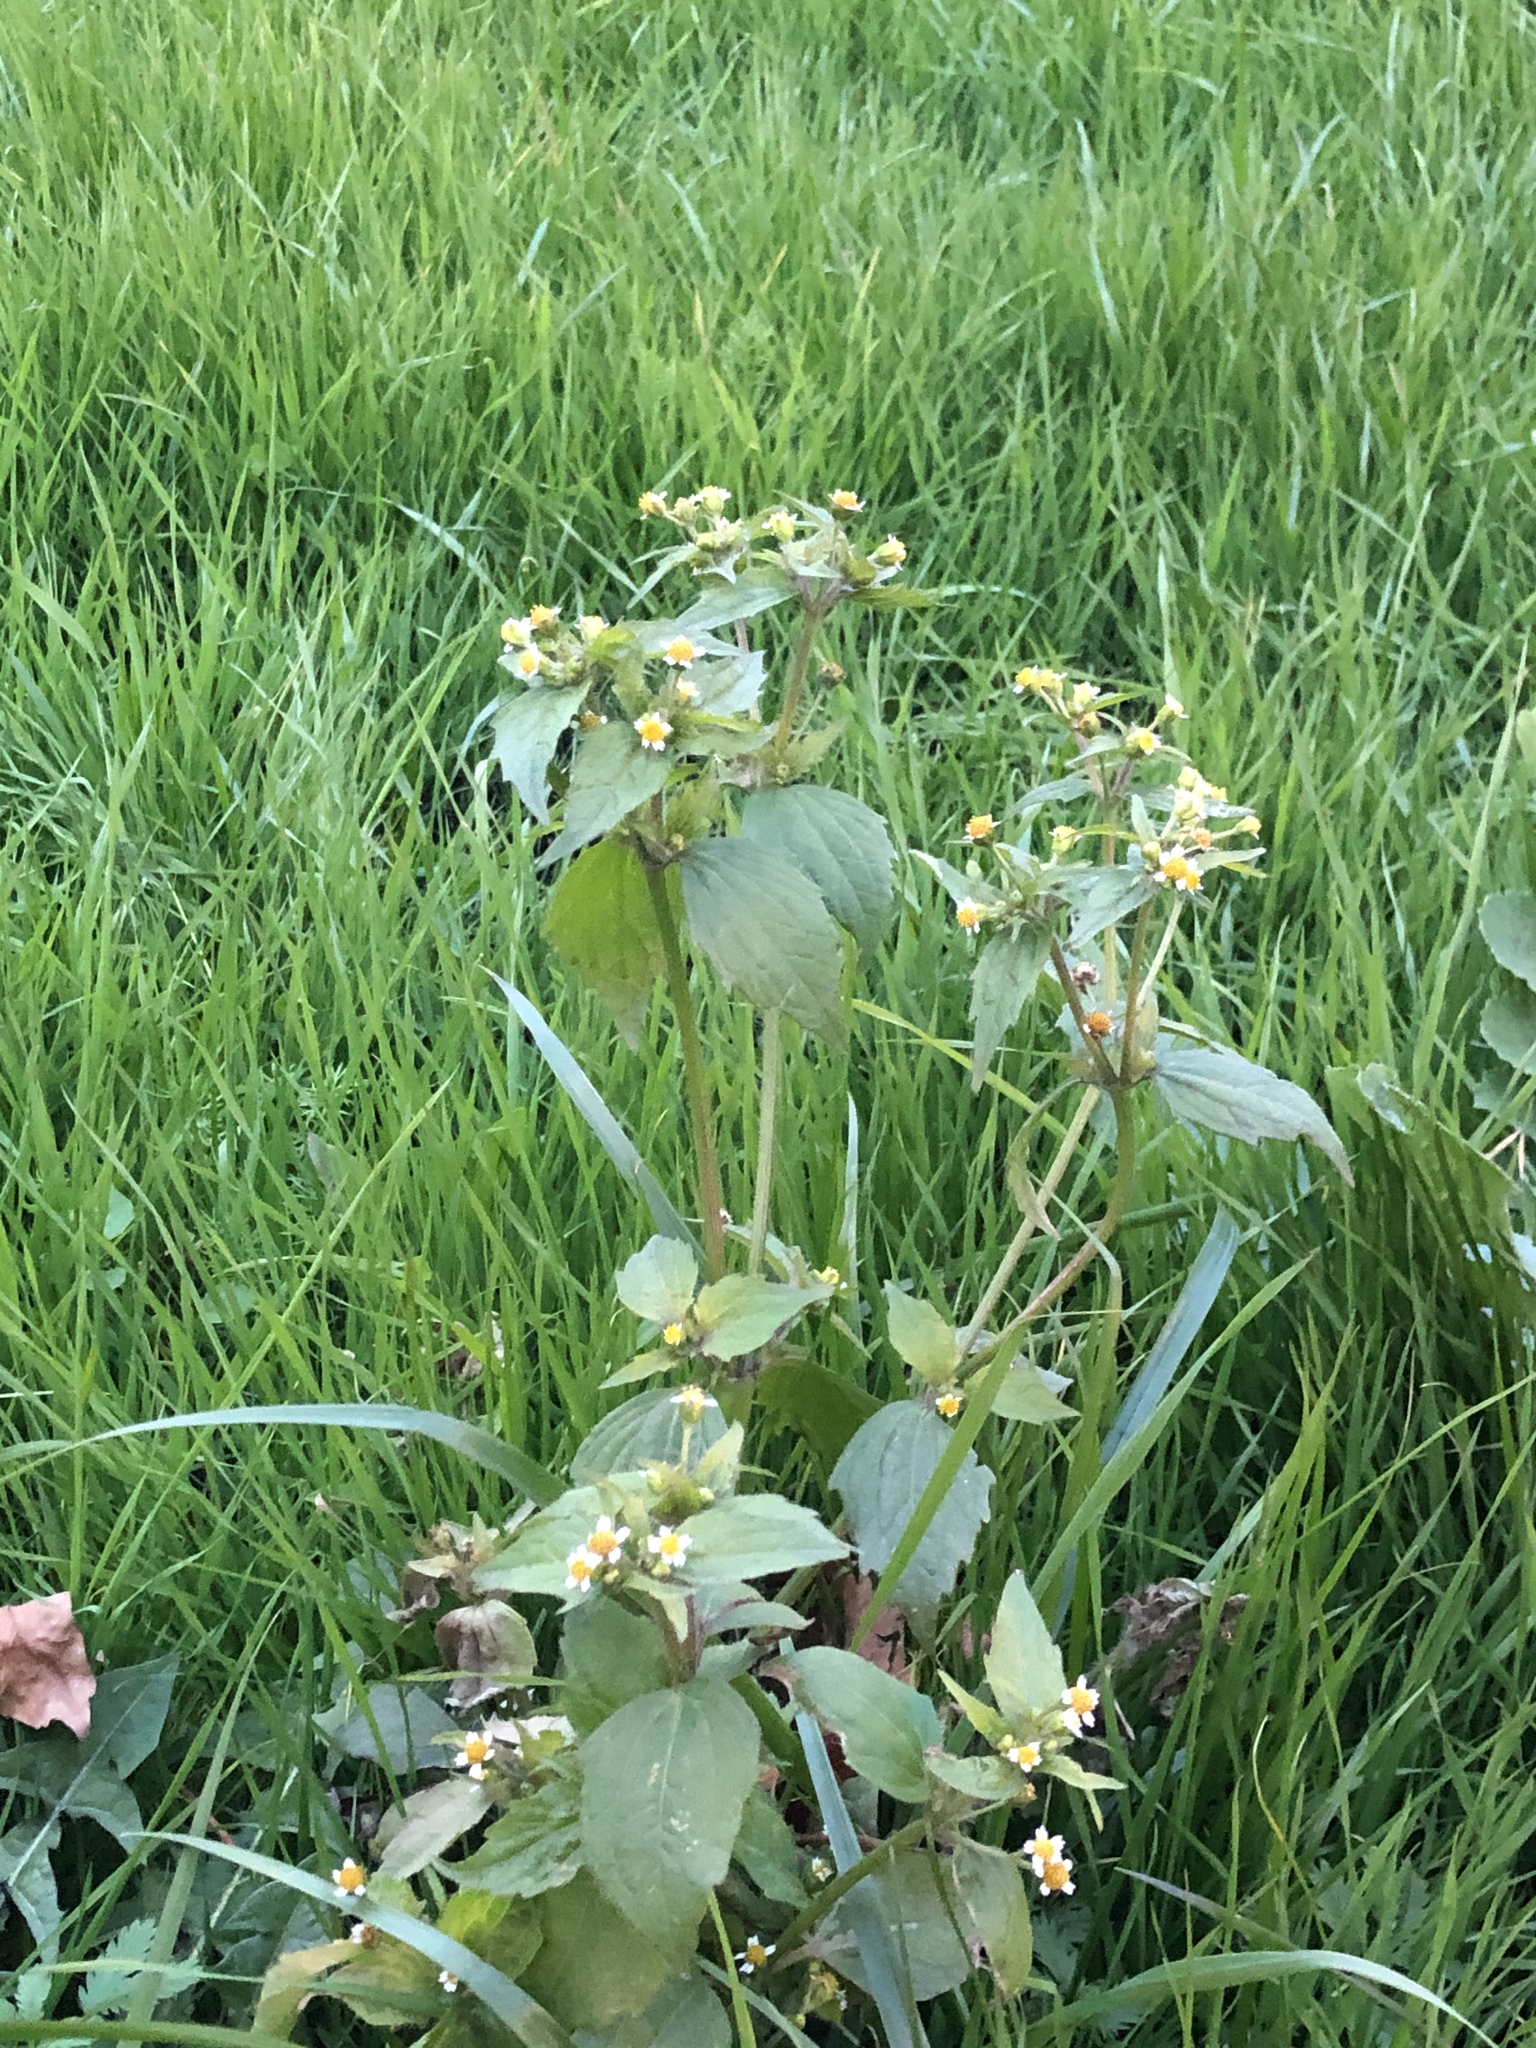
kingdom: Plantae
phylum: Tracheophyta
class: Magnoliopsida
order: Asterales
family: Asteraceae
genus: Galinsoga
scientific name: Galinsoga quadriradiata
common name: Shaggy soldier
